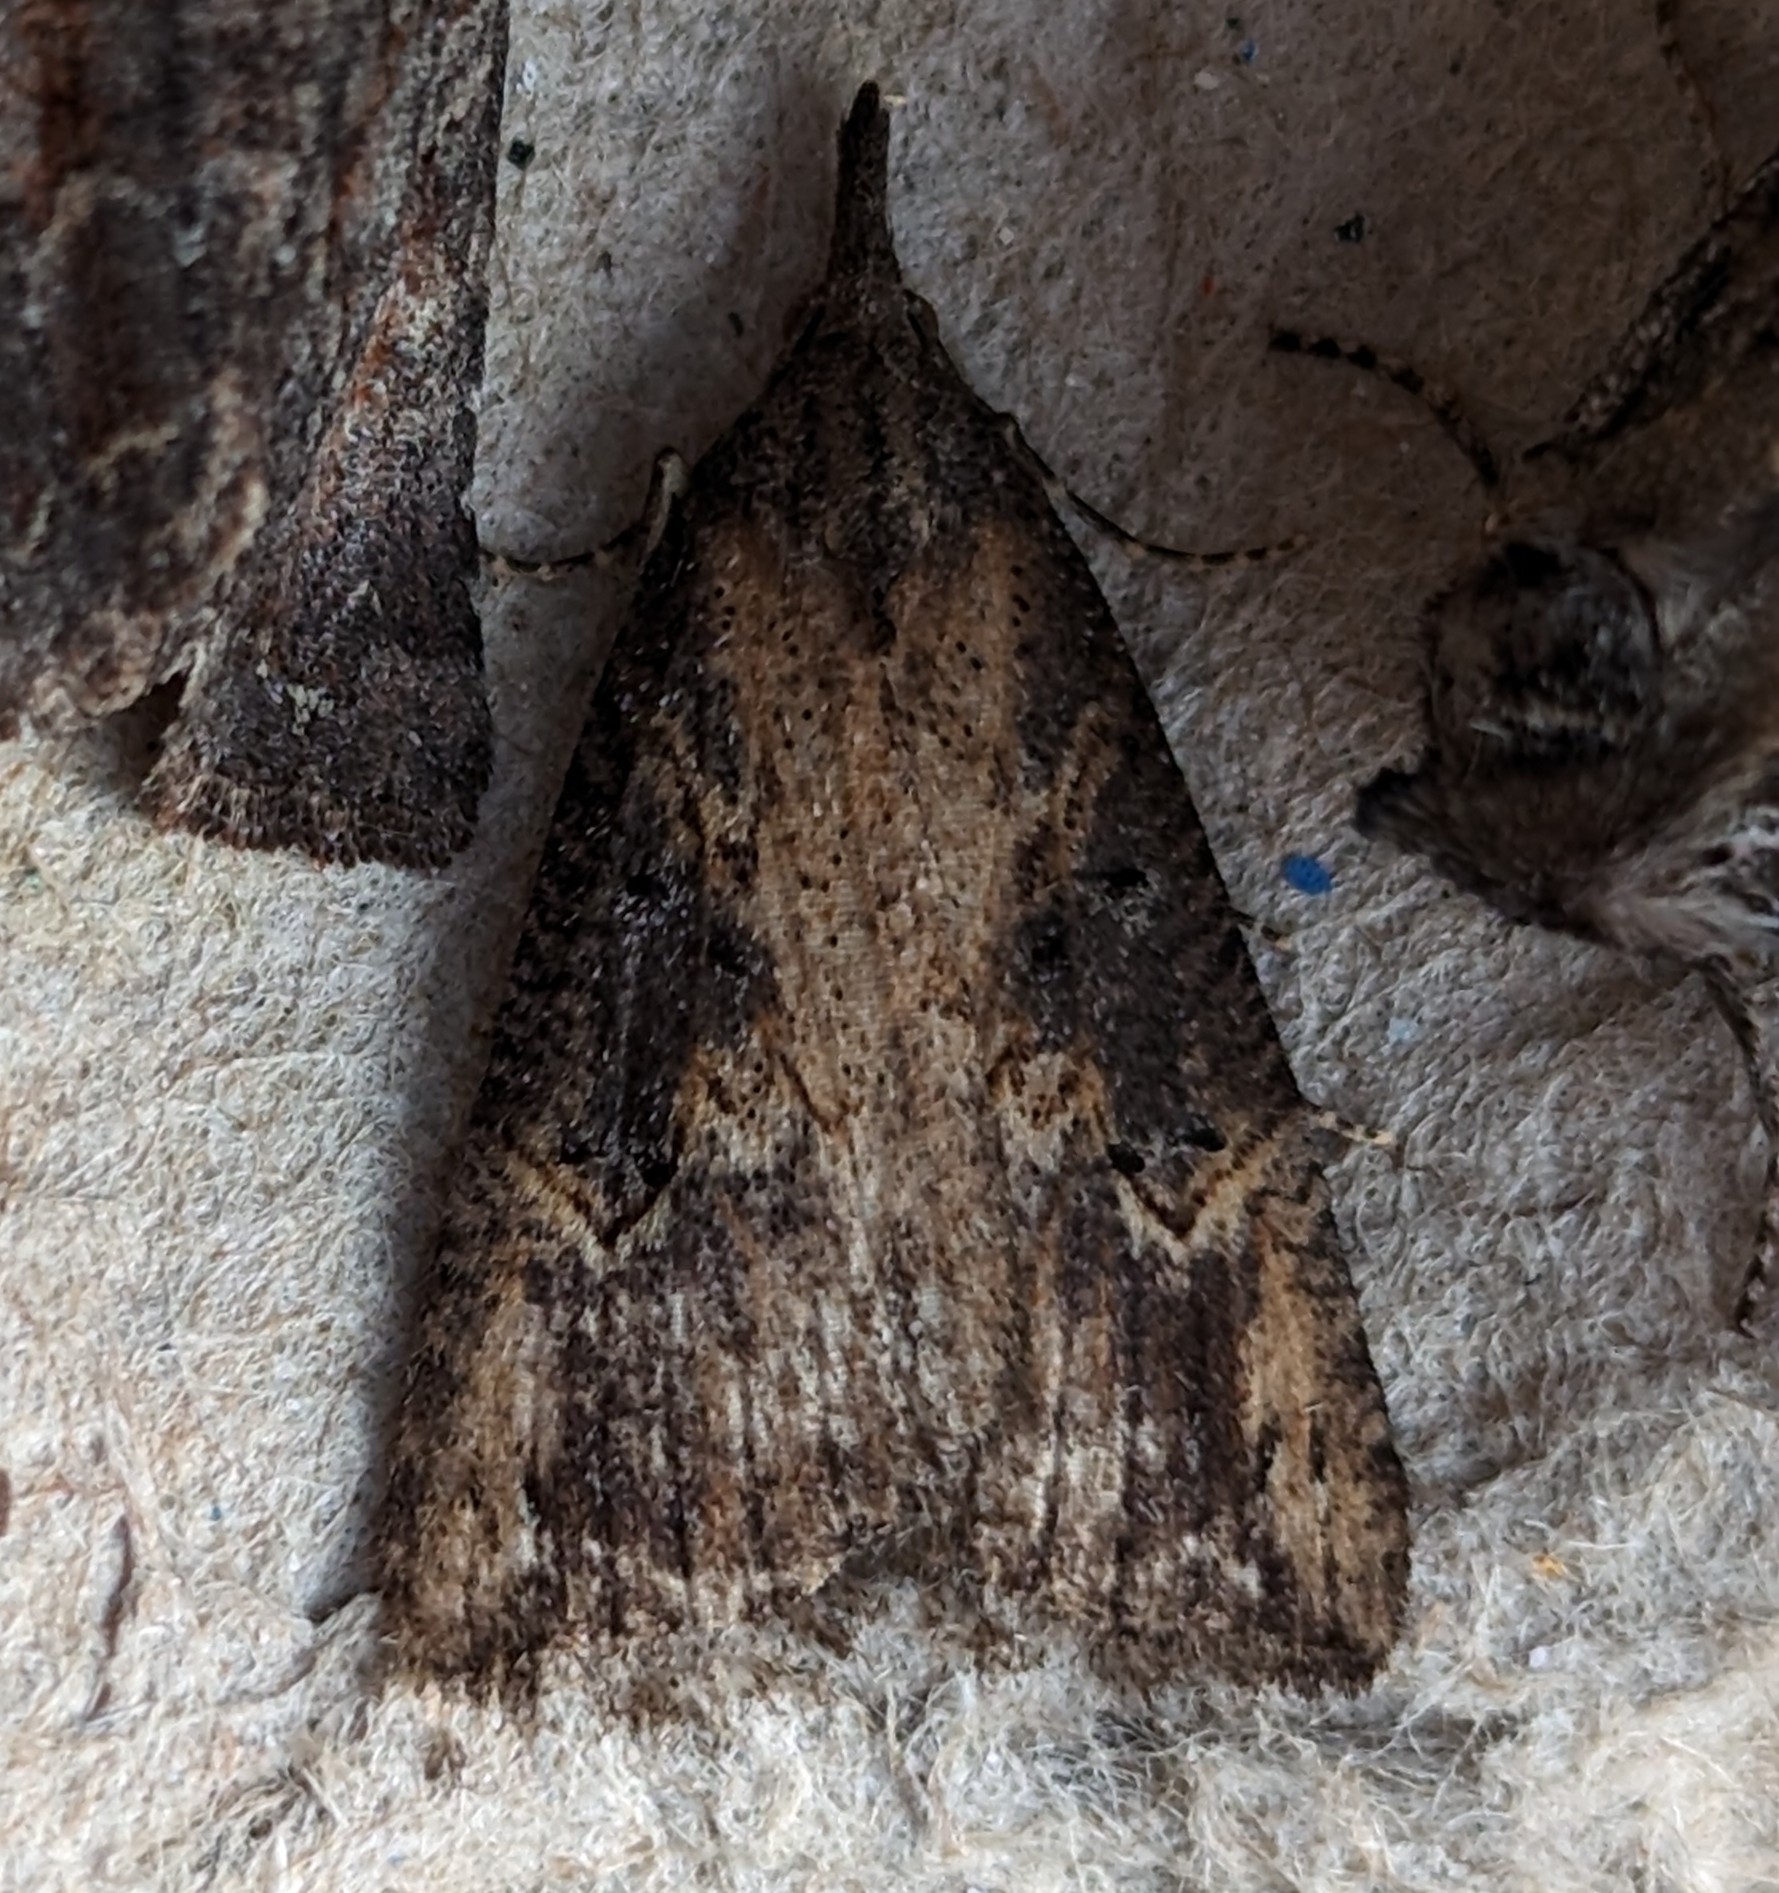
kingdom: Animalia
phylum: Arthropoda
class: Insecta
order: Lepidoptera
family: Erebidae
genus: Hypena
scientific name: Hypena humuli
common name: Hop vine snout
